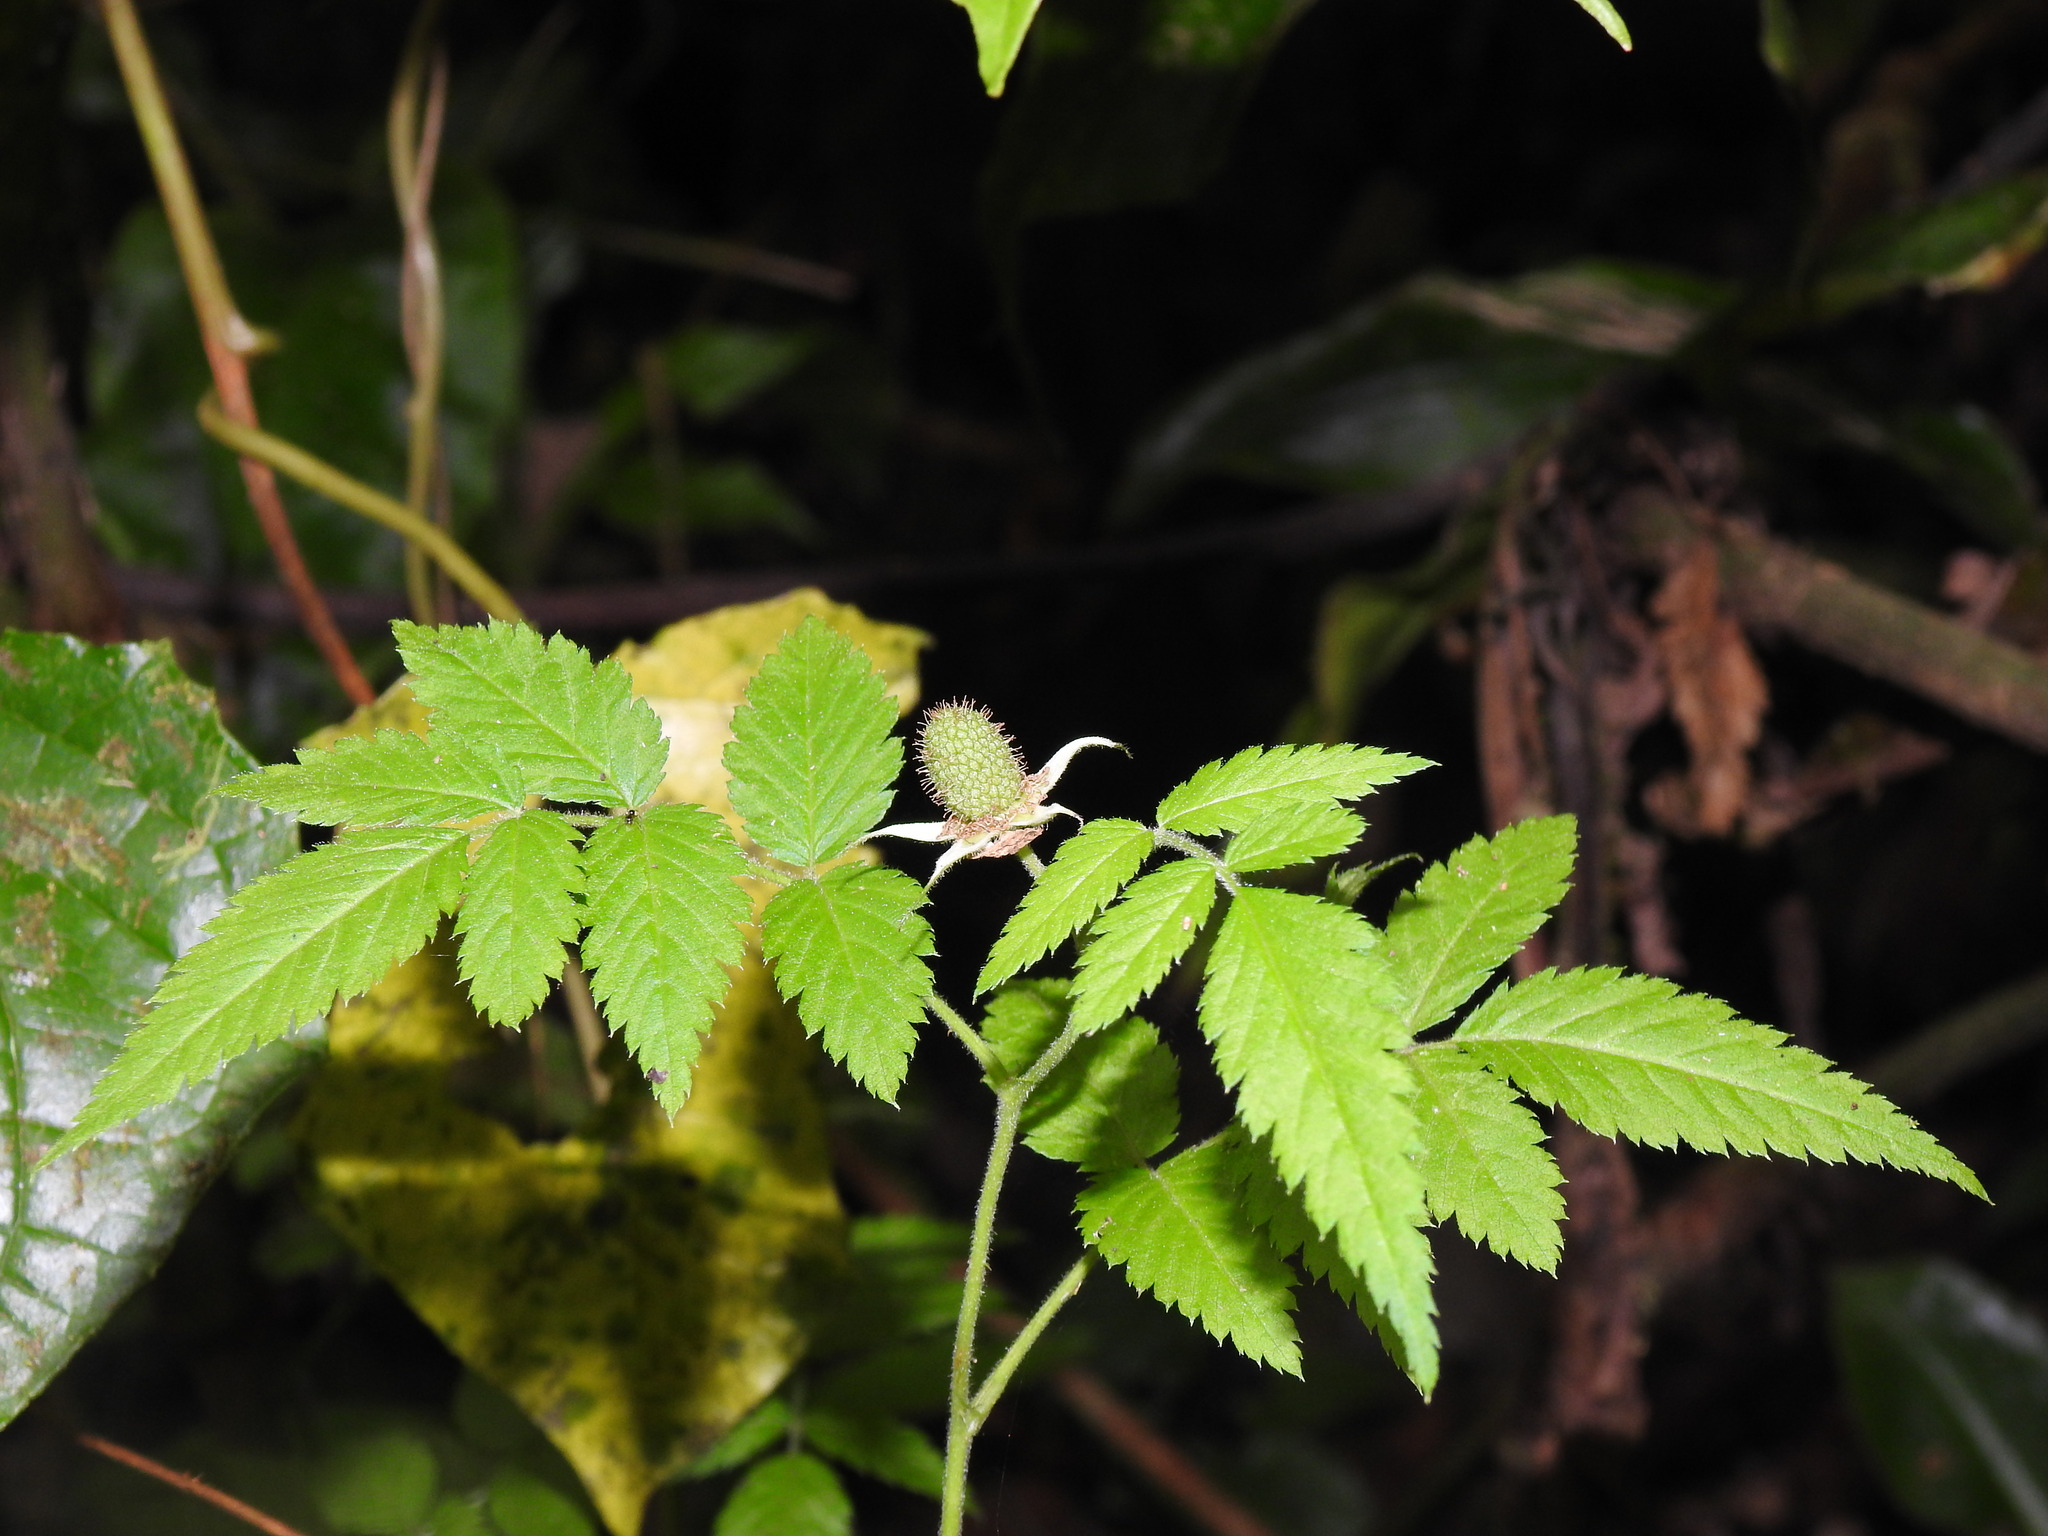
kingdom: Plantae
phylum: Tracheophyta
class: Magnoliopsida
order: Rosales
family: Rosaceae
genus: Rubus
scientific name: Rubus rosifolius
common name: Roseleaf raspberry
